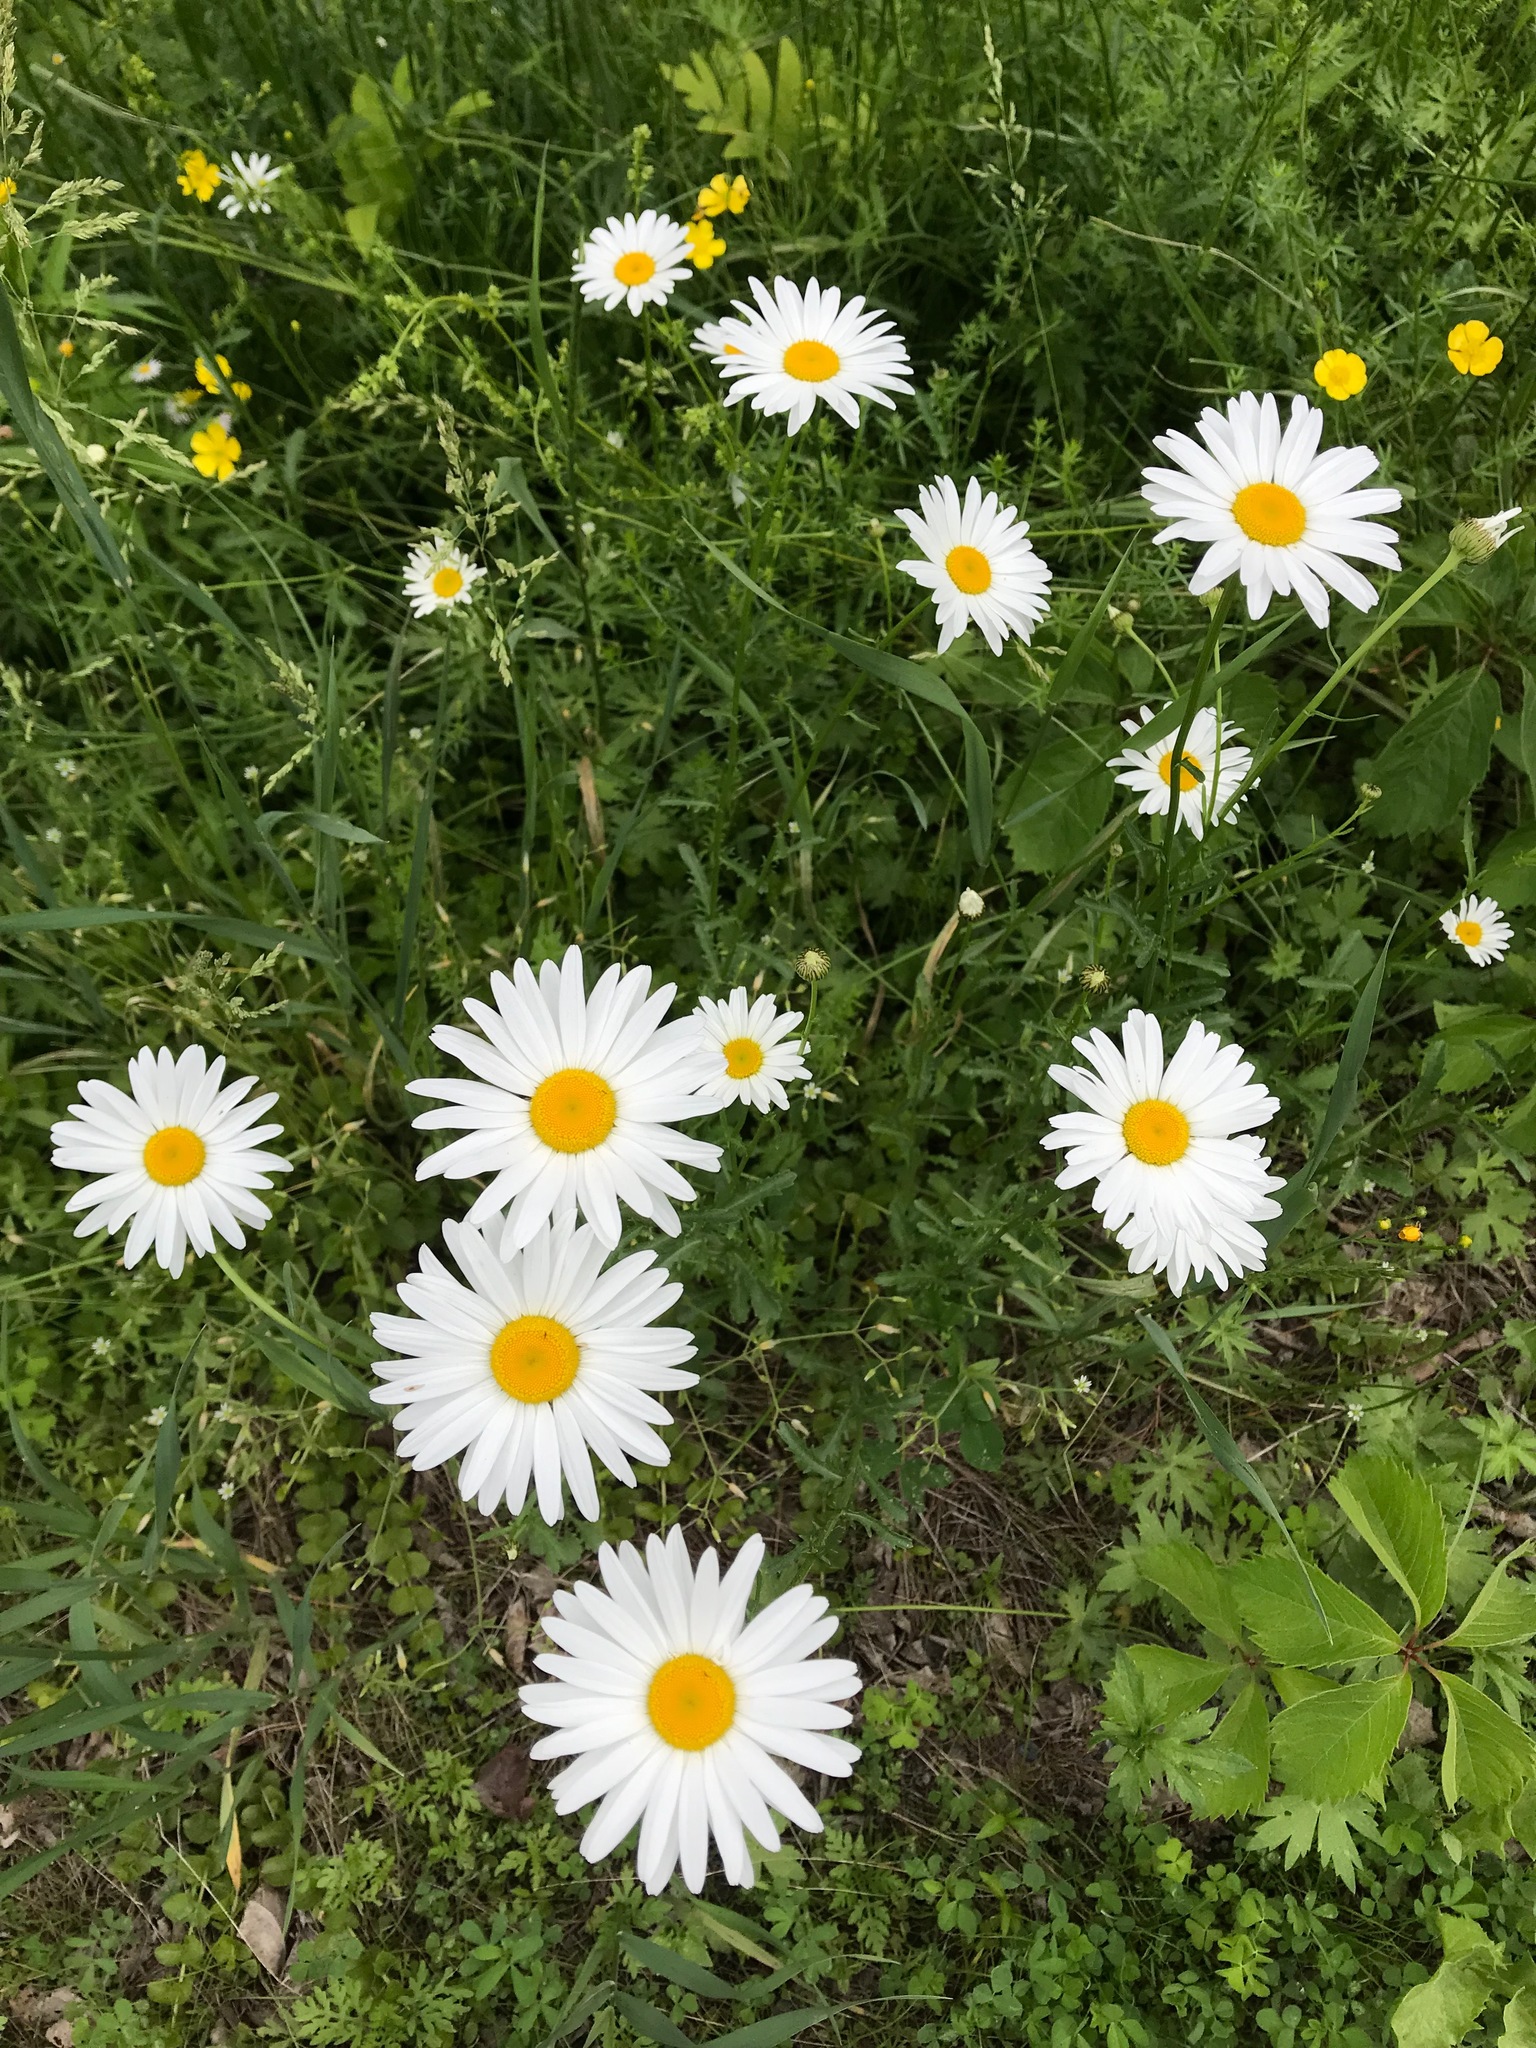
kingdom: Plantae
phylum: Tracheophyta
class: Magnoliopsida
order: Asterales
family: Asteraceae
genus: Leucanthemum
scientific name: Leucanthemum vulgare
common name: Oxeye daisy
